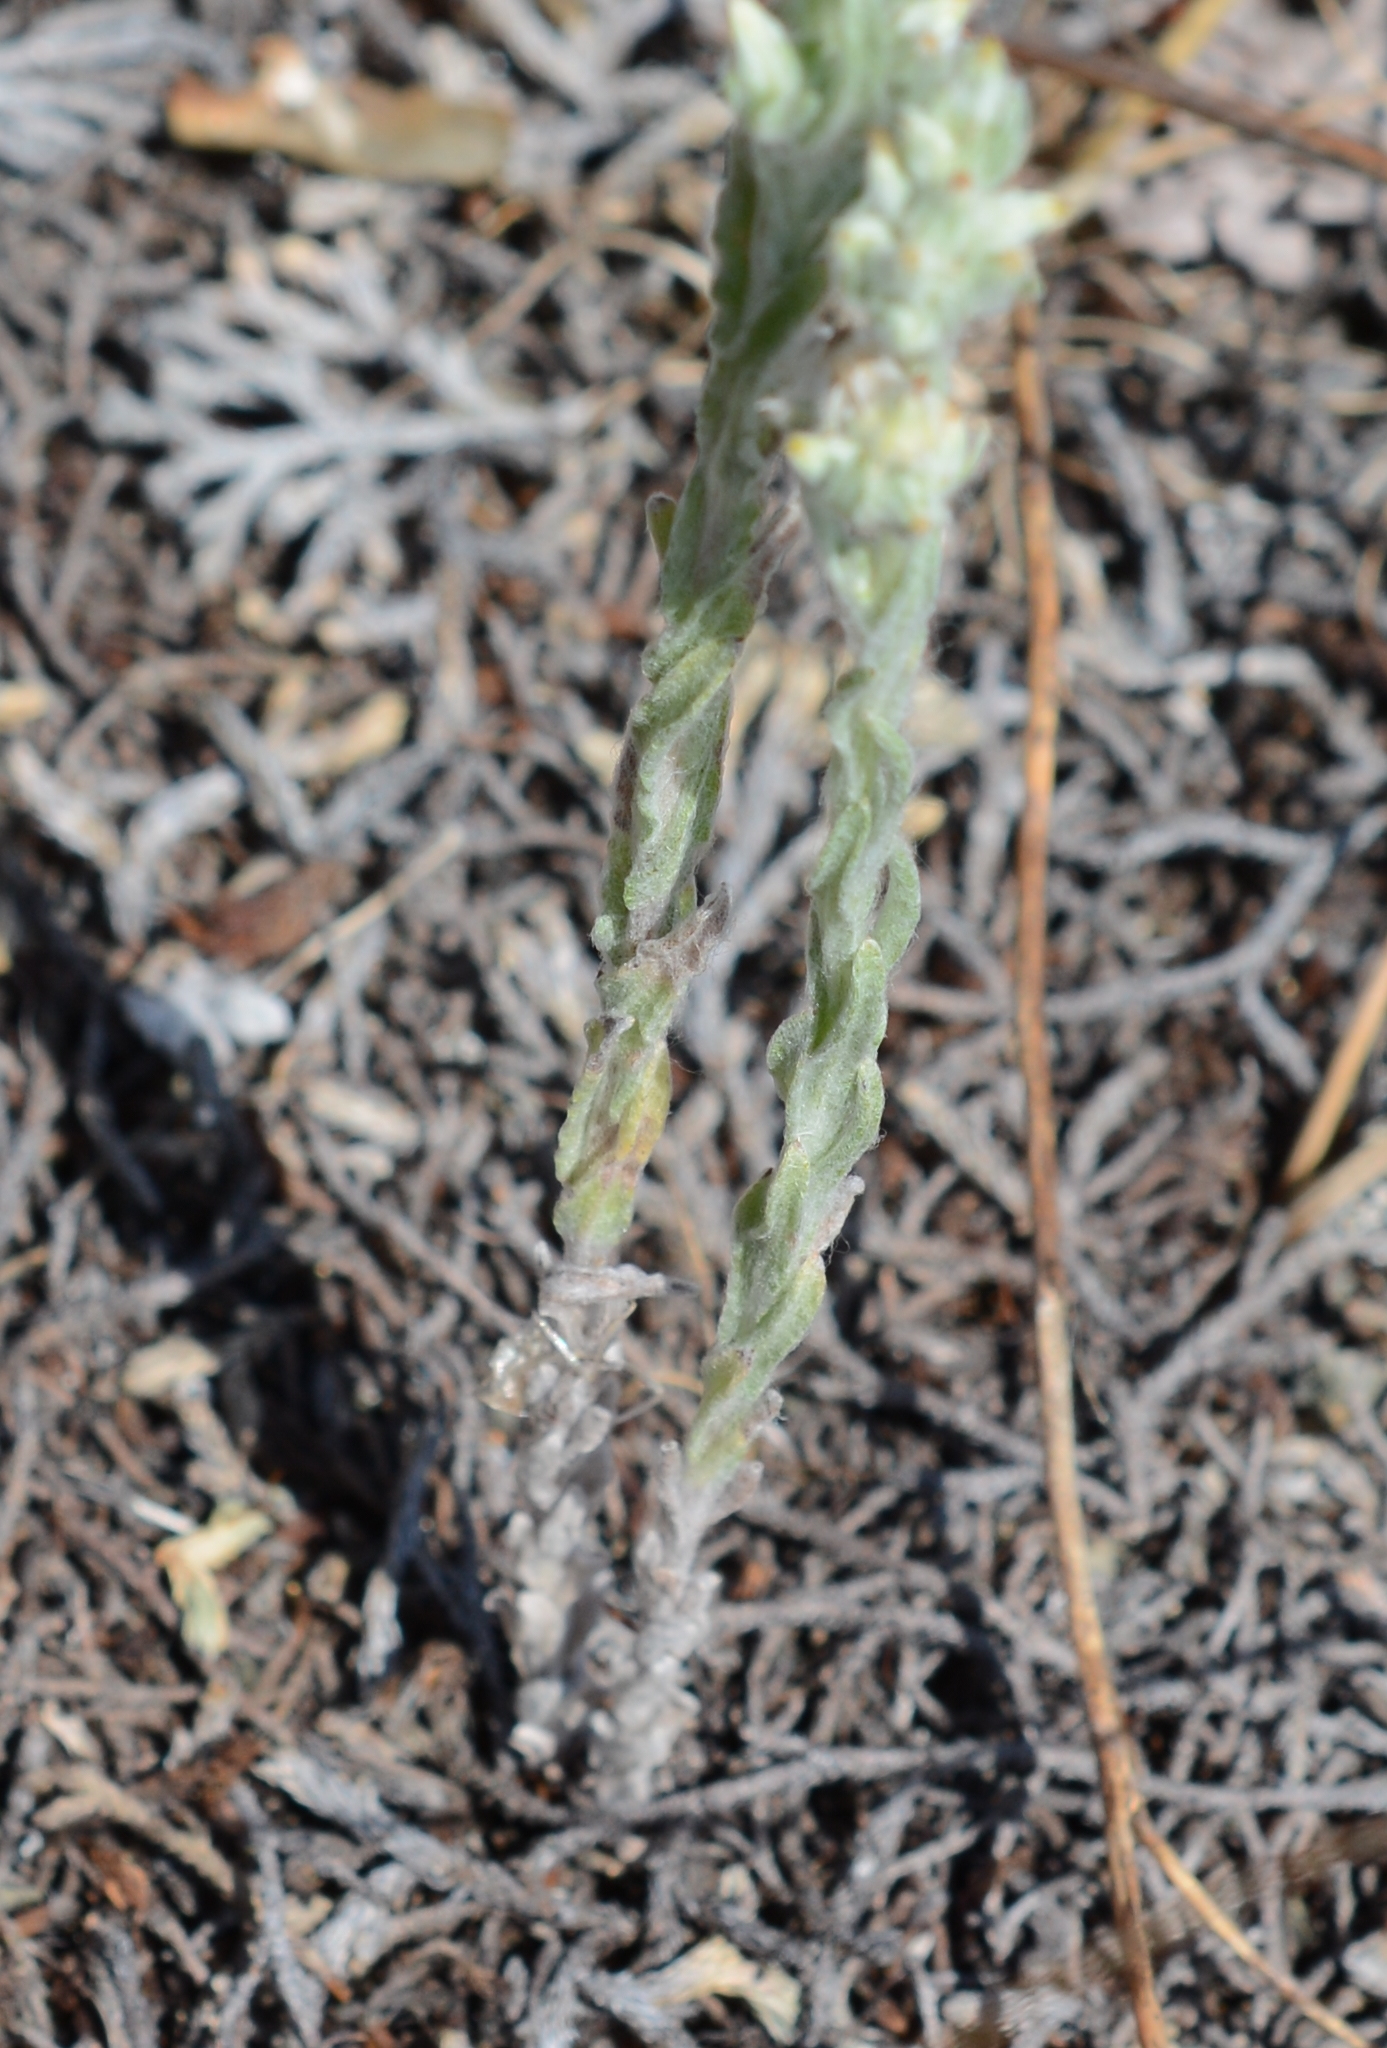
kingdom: Plantae
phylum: Tracheophyta
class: Magnoliopsida
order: Asterales
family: Asteraceae
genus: Filago
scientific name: Filago arvensis
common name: Field cudweed
